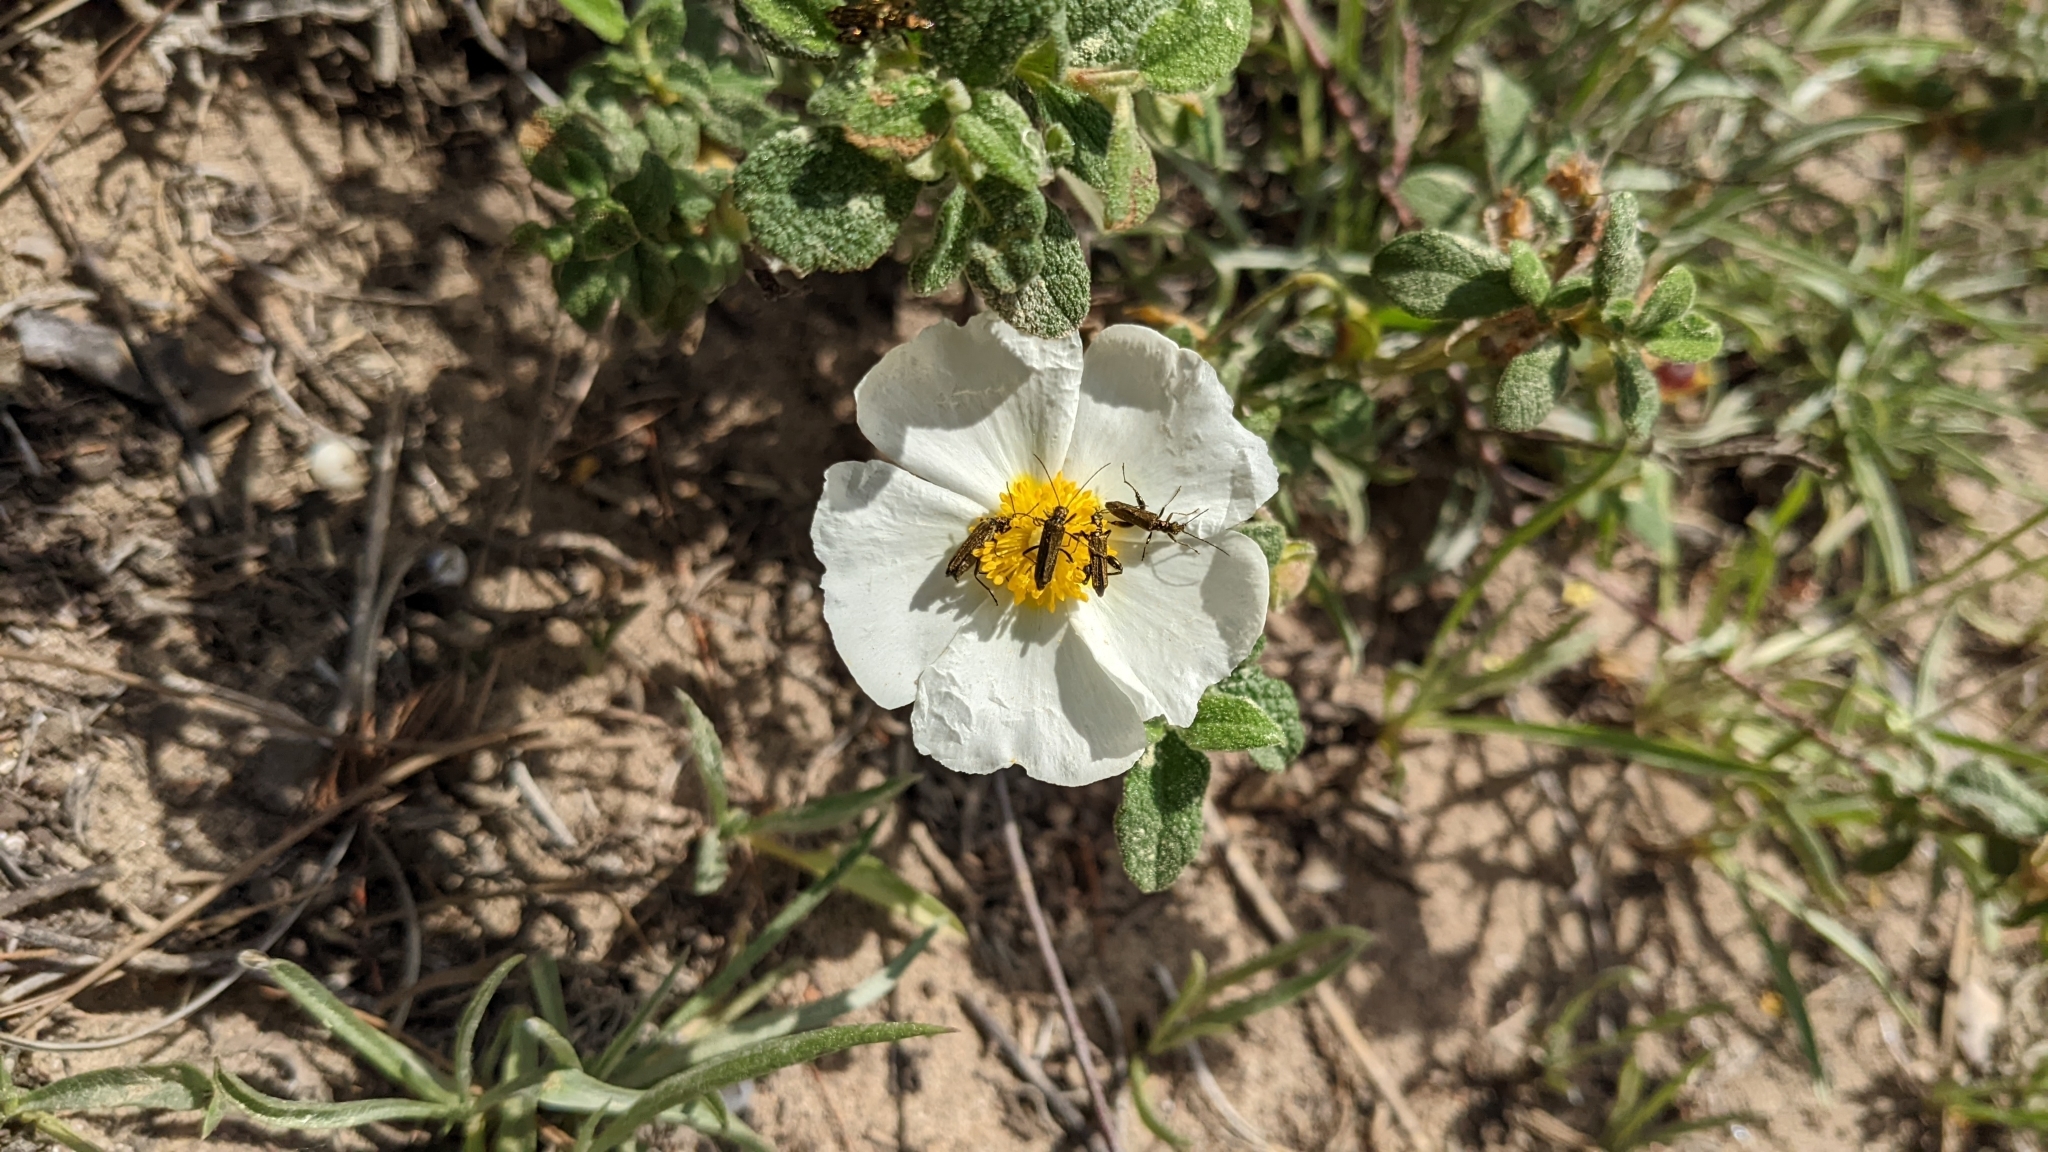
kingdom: Plantae
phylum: Tracheophyta
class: Magnoliopsida
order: Malvales
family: Cistaceae
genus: Cistus
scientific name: Cistus salviifolius
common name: Salvia cistus
